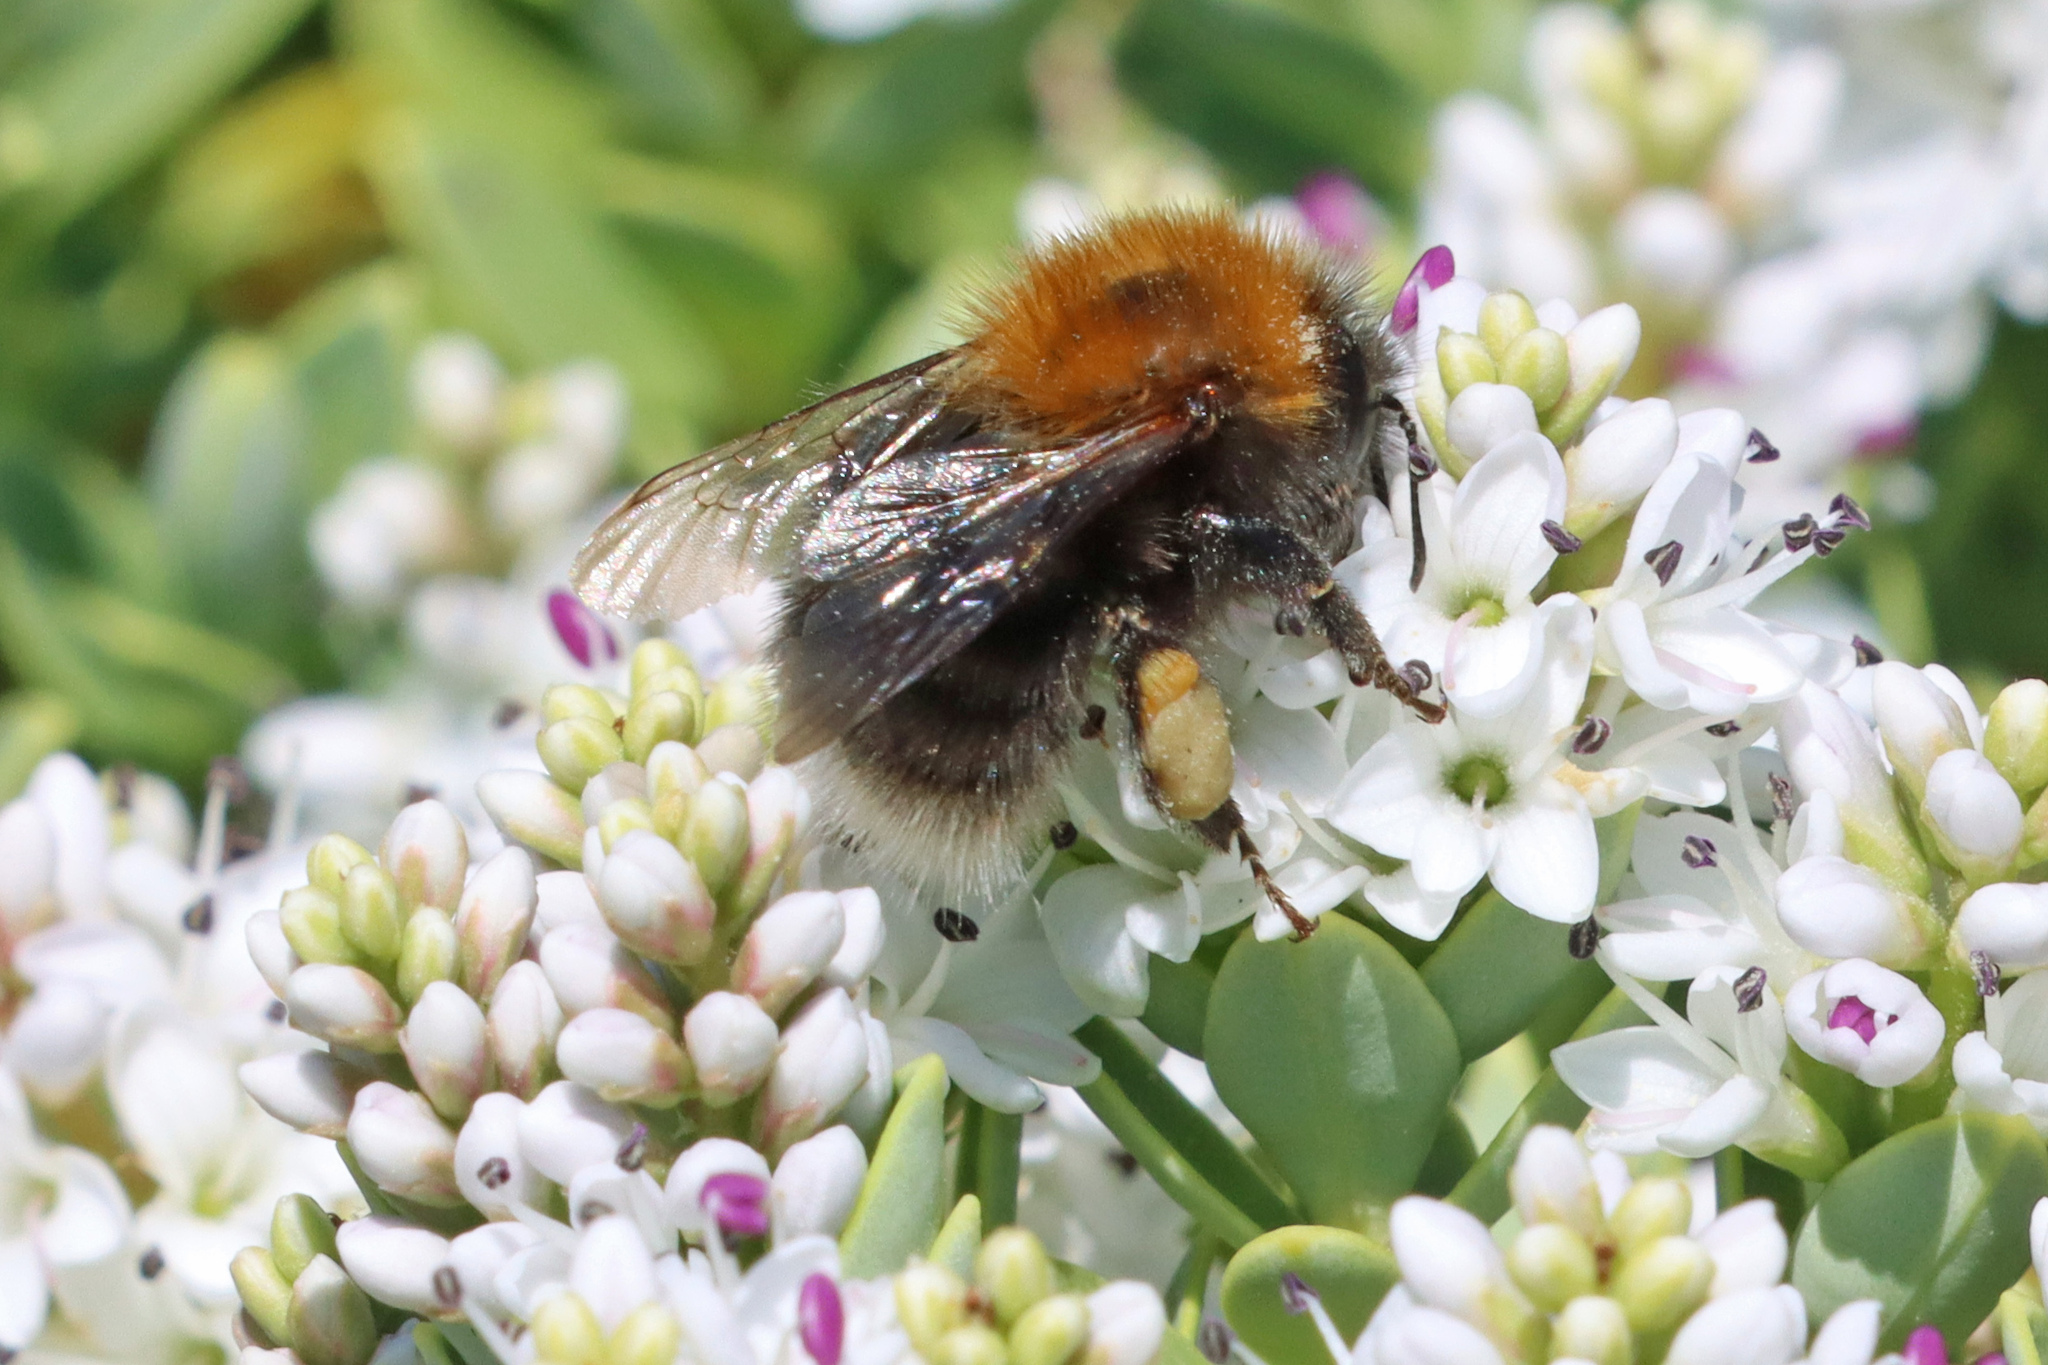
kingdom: Animalia
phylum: Arthropoda
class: Insecta
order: Hymenoptera
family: Apidae
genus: Bombus
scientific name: Bombus hypnorum
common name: New garden bumblebee
